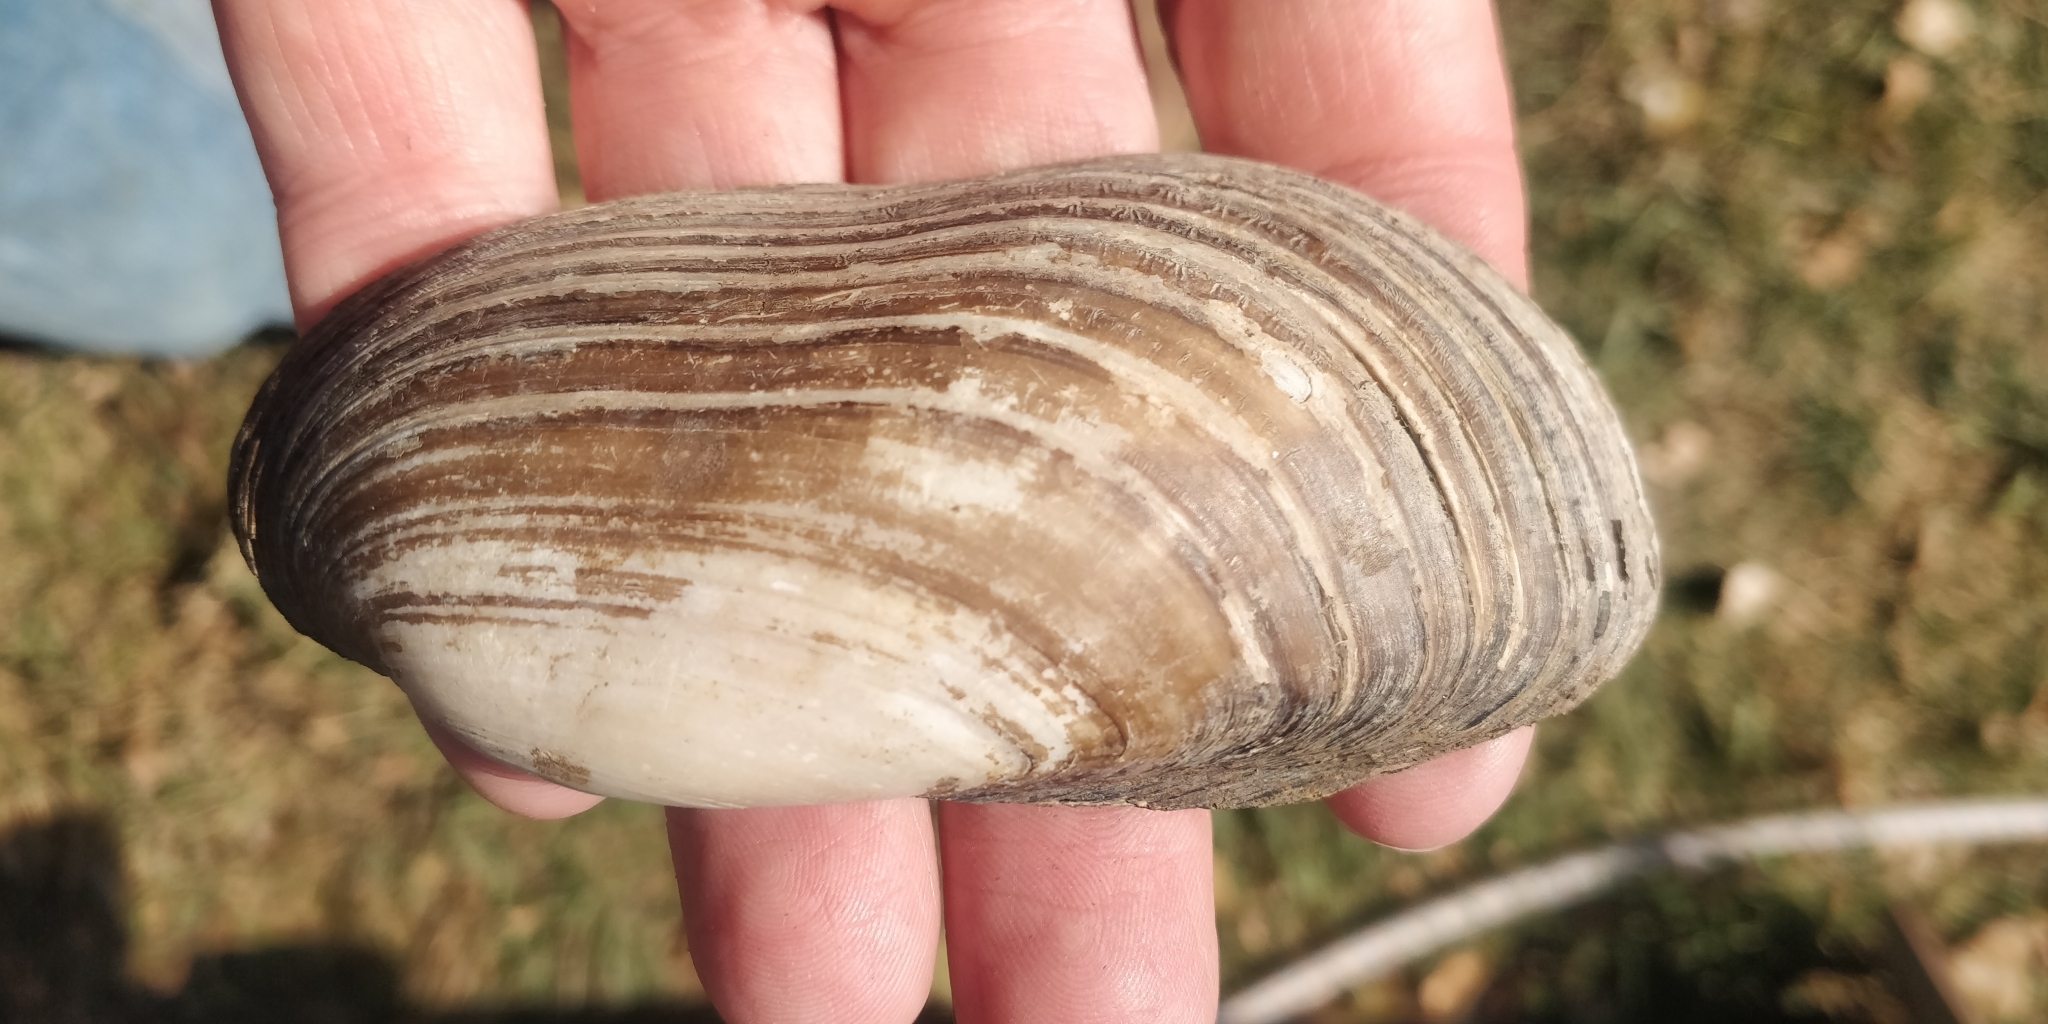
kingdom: Animalia
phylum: Mollusca
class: Bivalvia
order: Unionida
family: Unionidae
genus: Lampsilis
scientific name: Lampsilis teres
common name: Yellow sandshell
